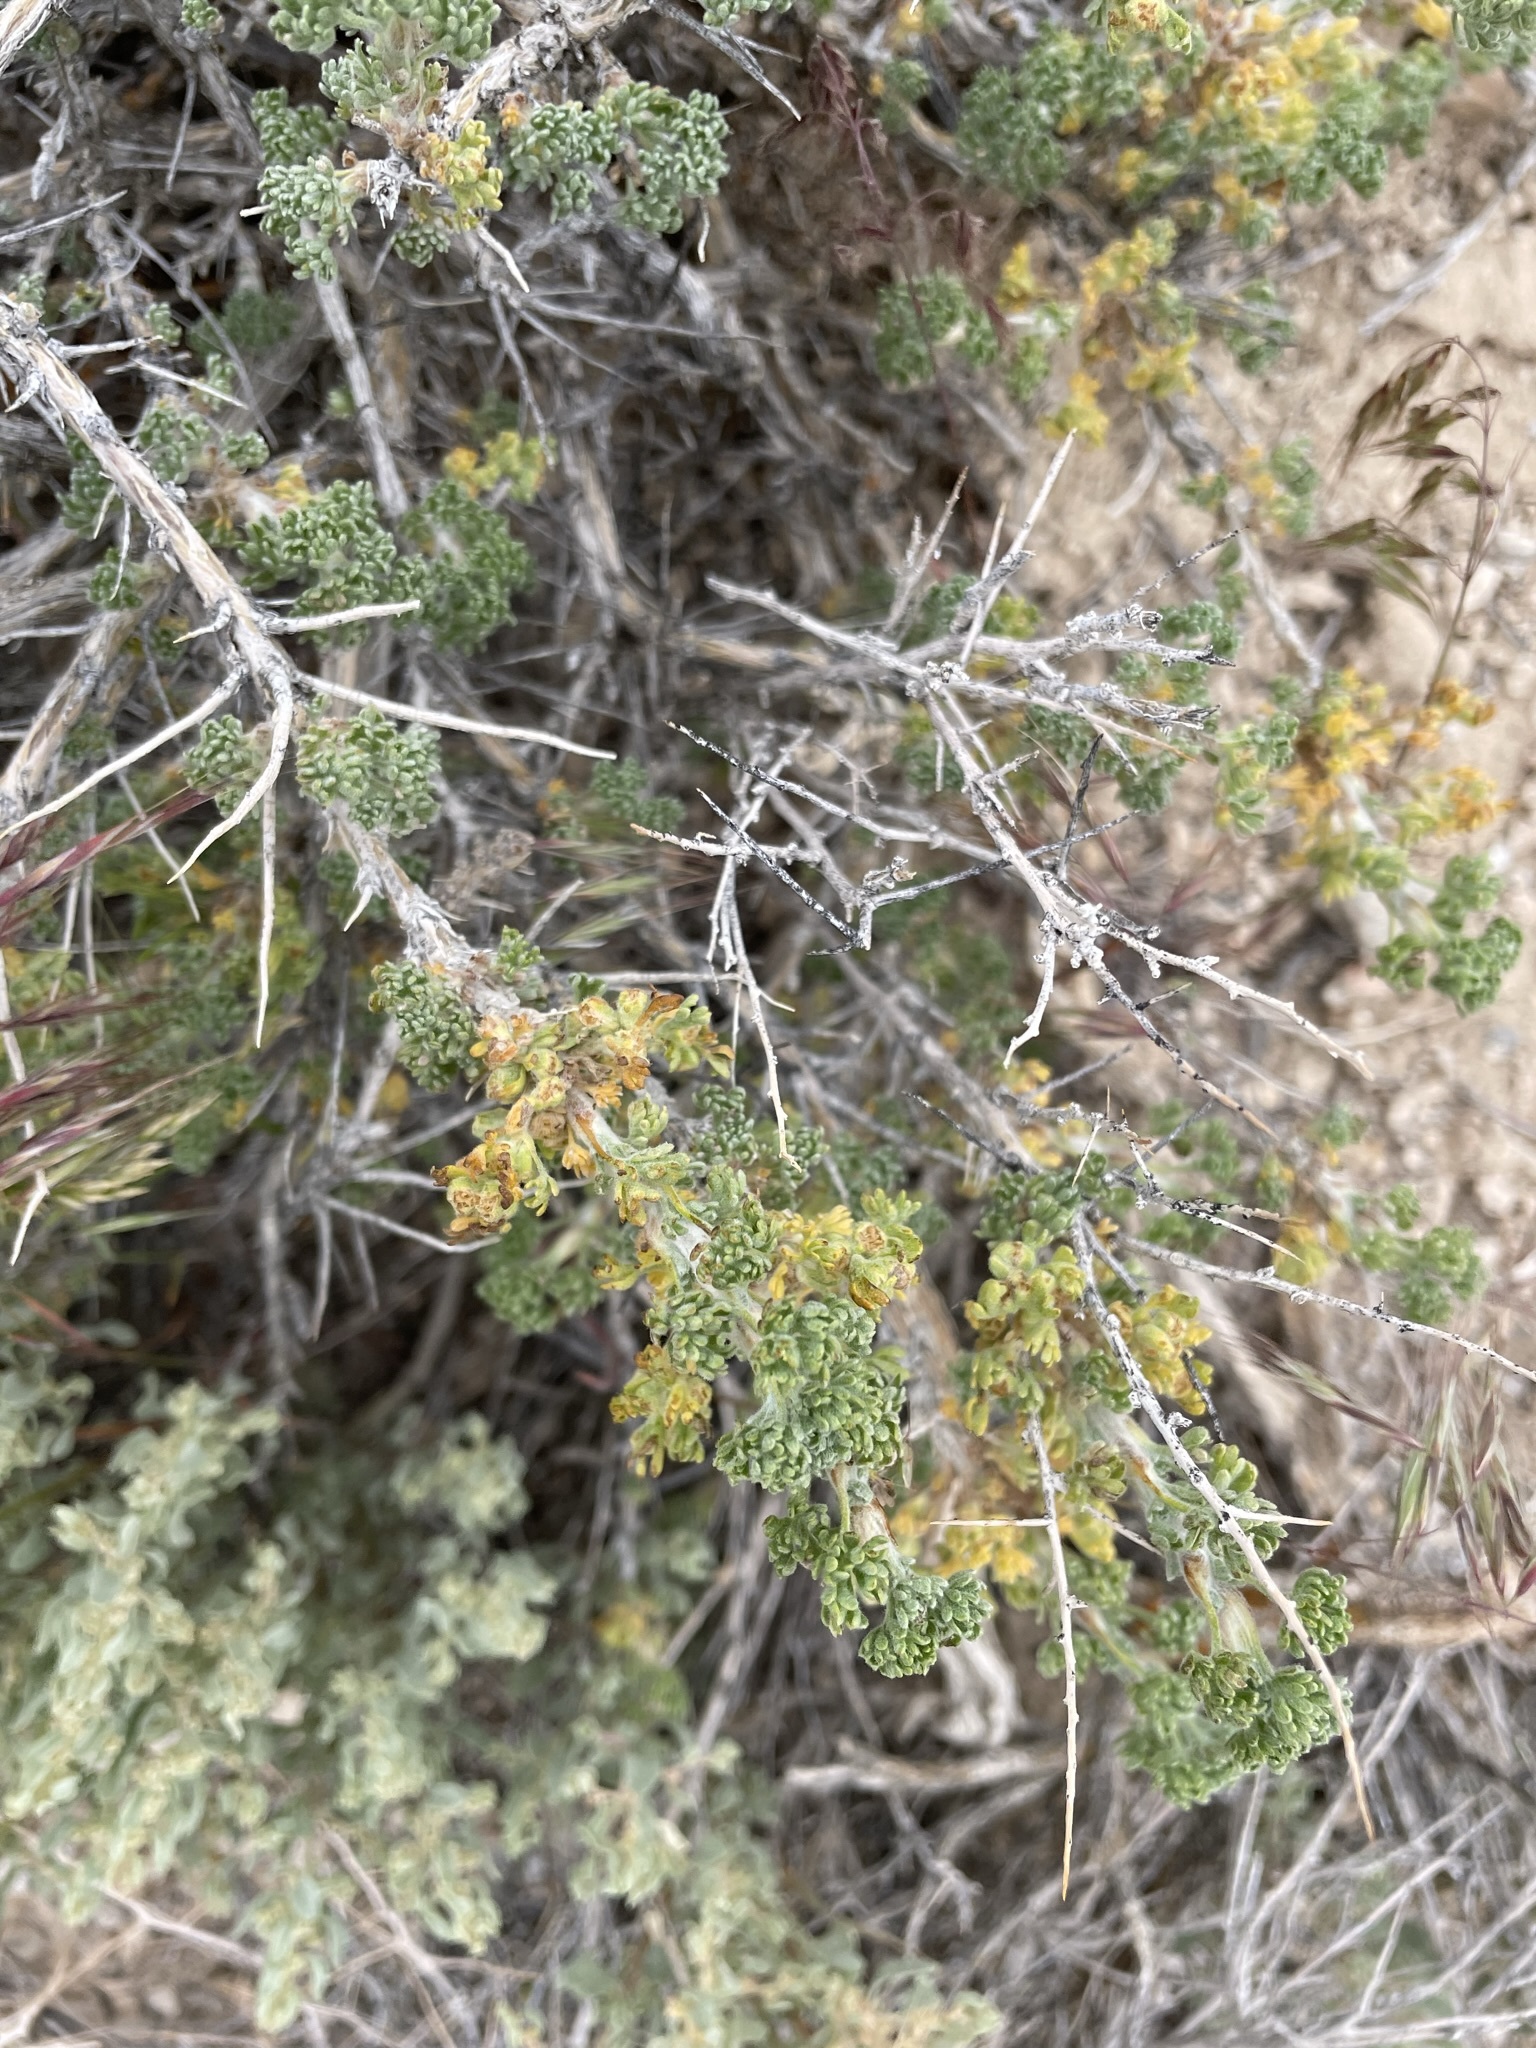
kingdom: Plantae
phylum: Tracheophyta
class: Magnoliopsida
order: Asterales
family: Asteraceae
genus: Artemisia
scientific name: Artemisia spinescens
